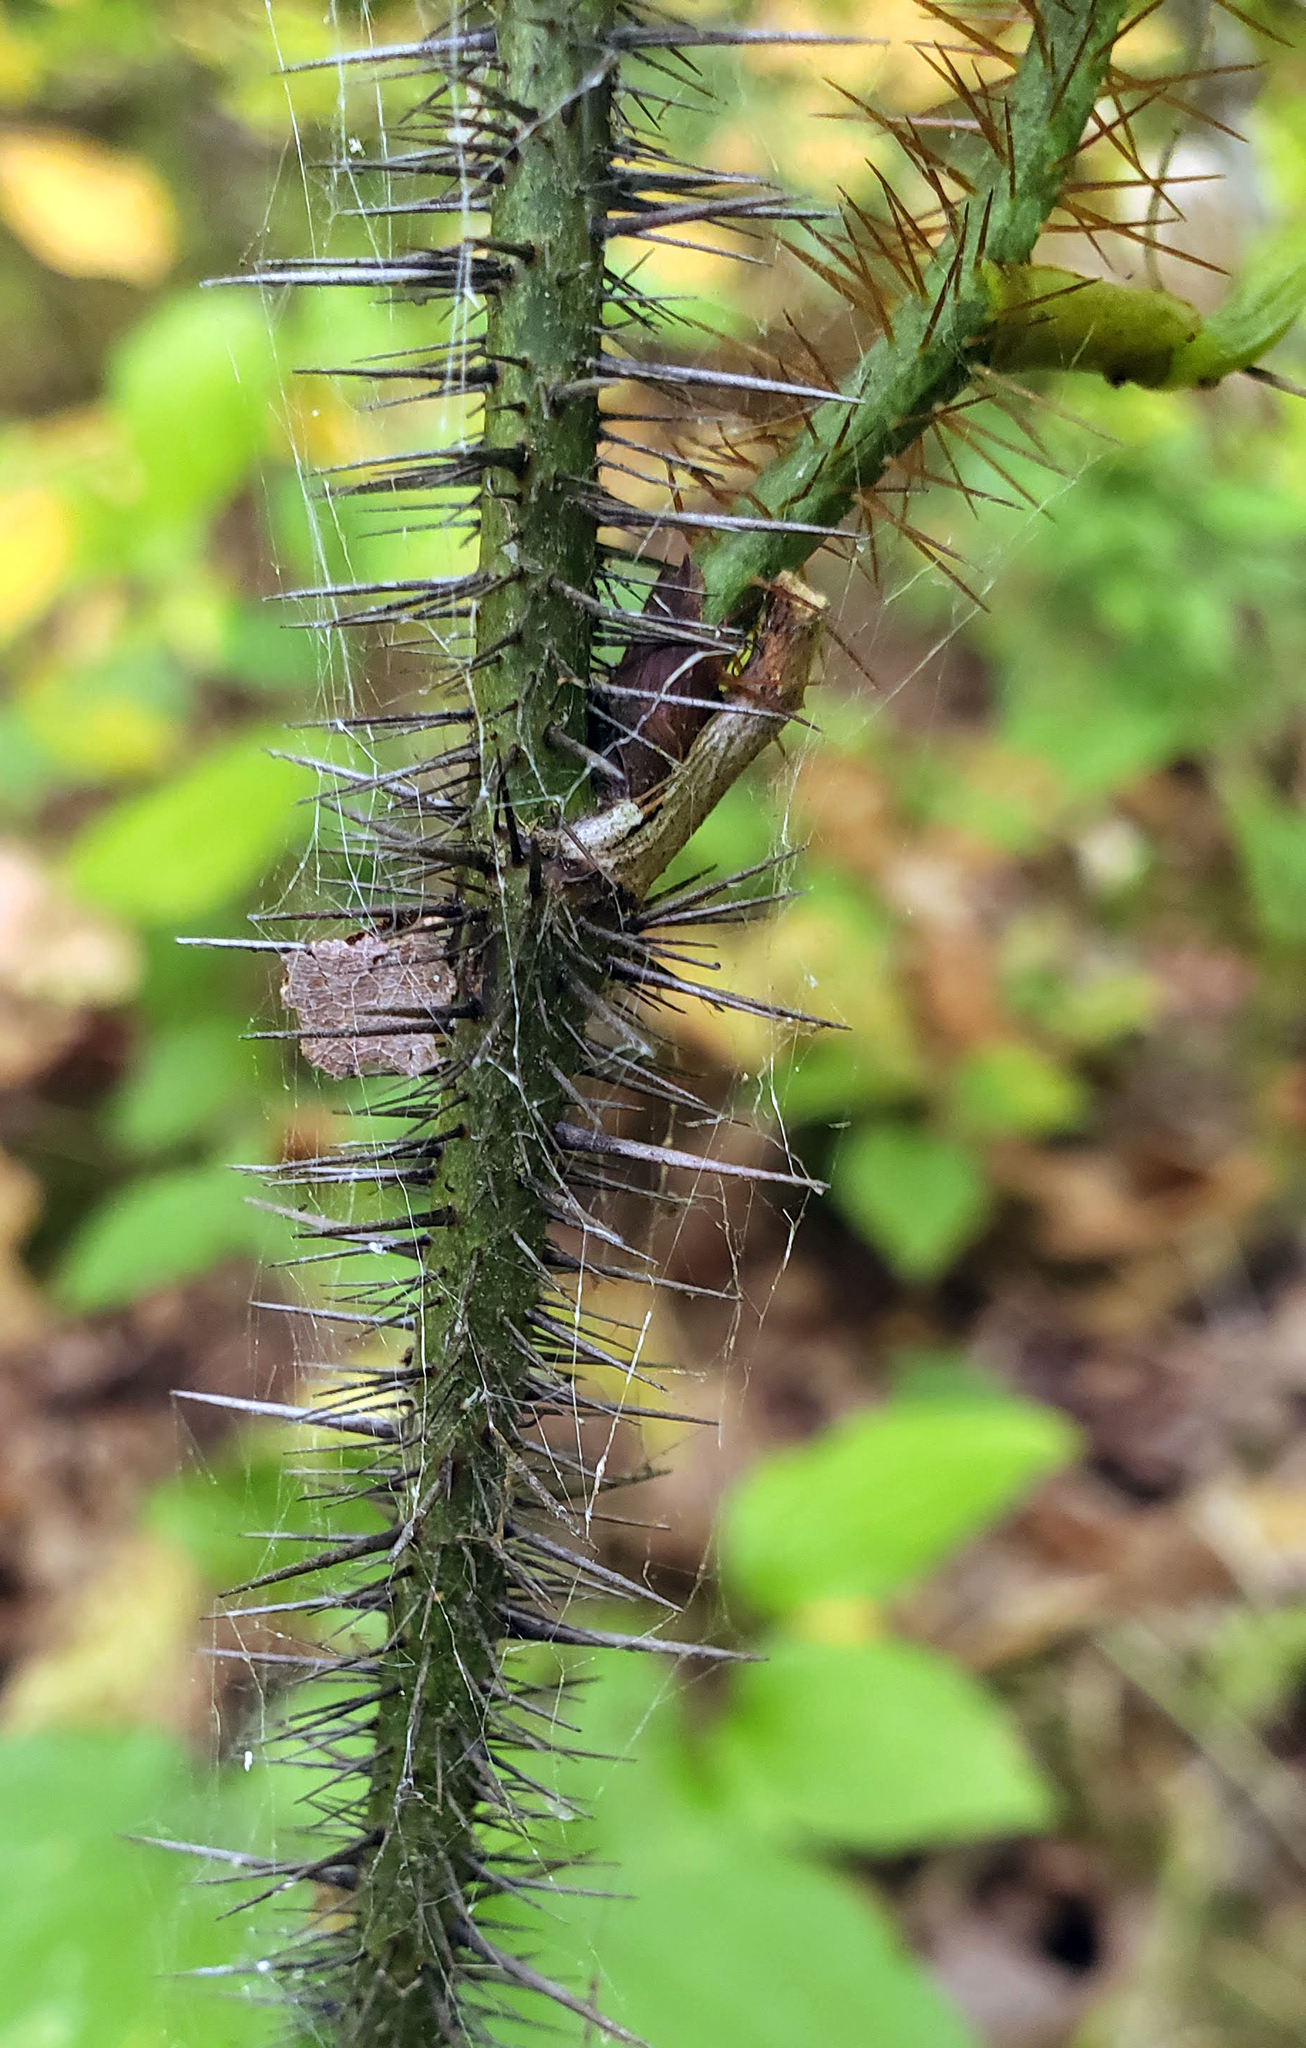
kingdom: Plantae
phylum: Tracheophyta
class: Liliopsida
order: Liliales
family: Smilacaceae
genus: Smilax
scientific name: Smilax tamnoides
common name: Hellfetter
